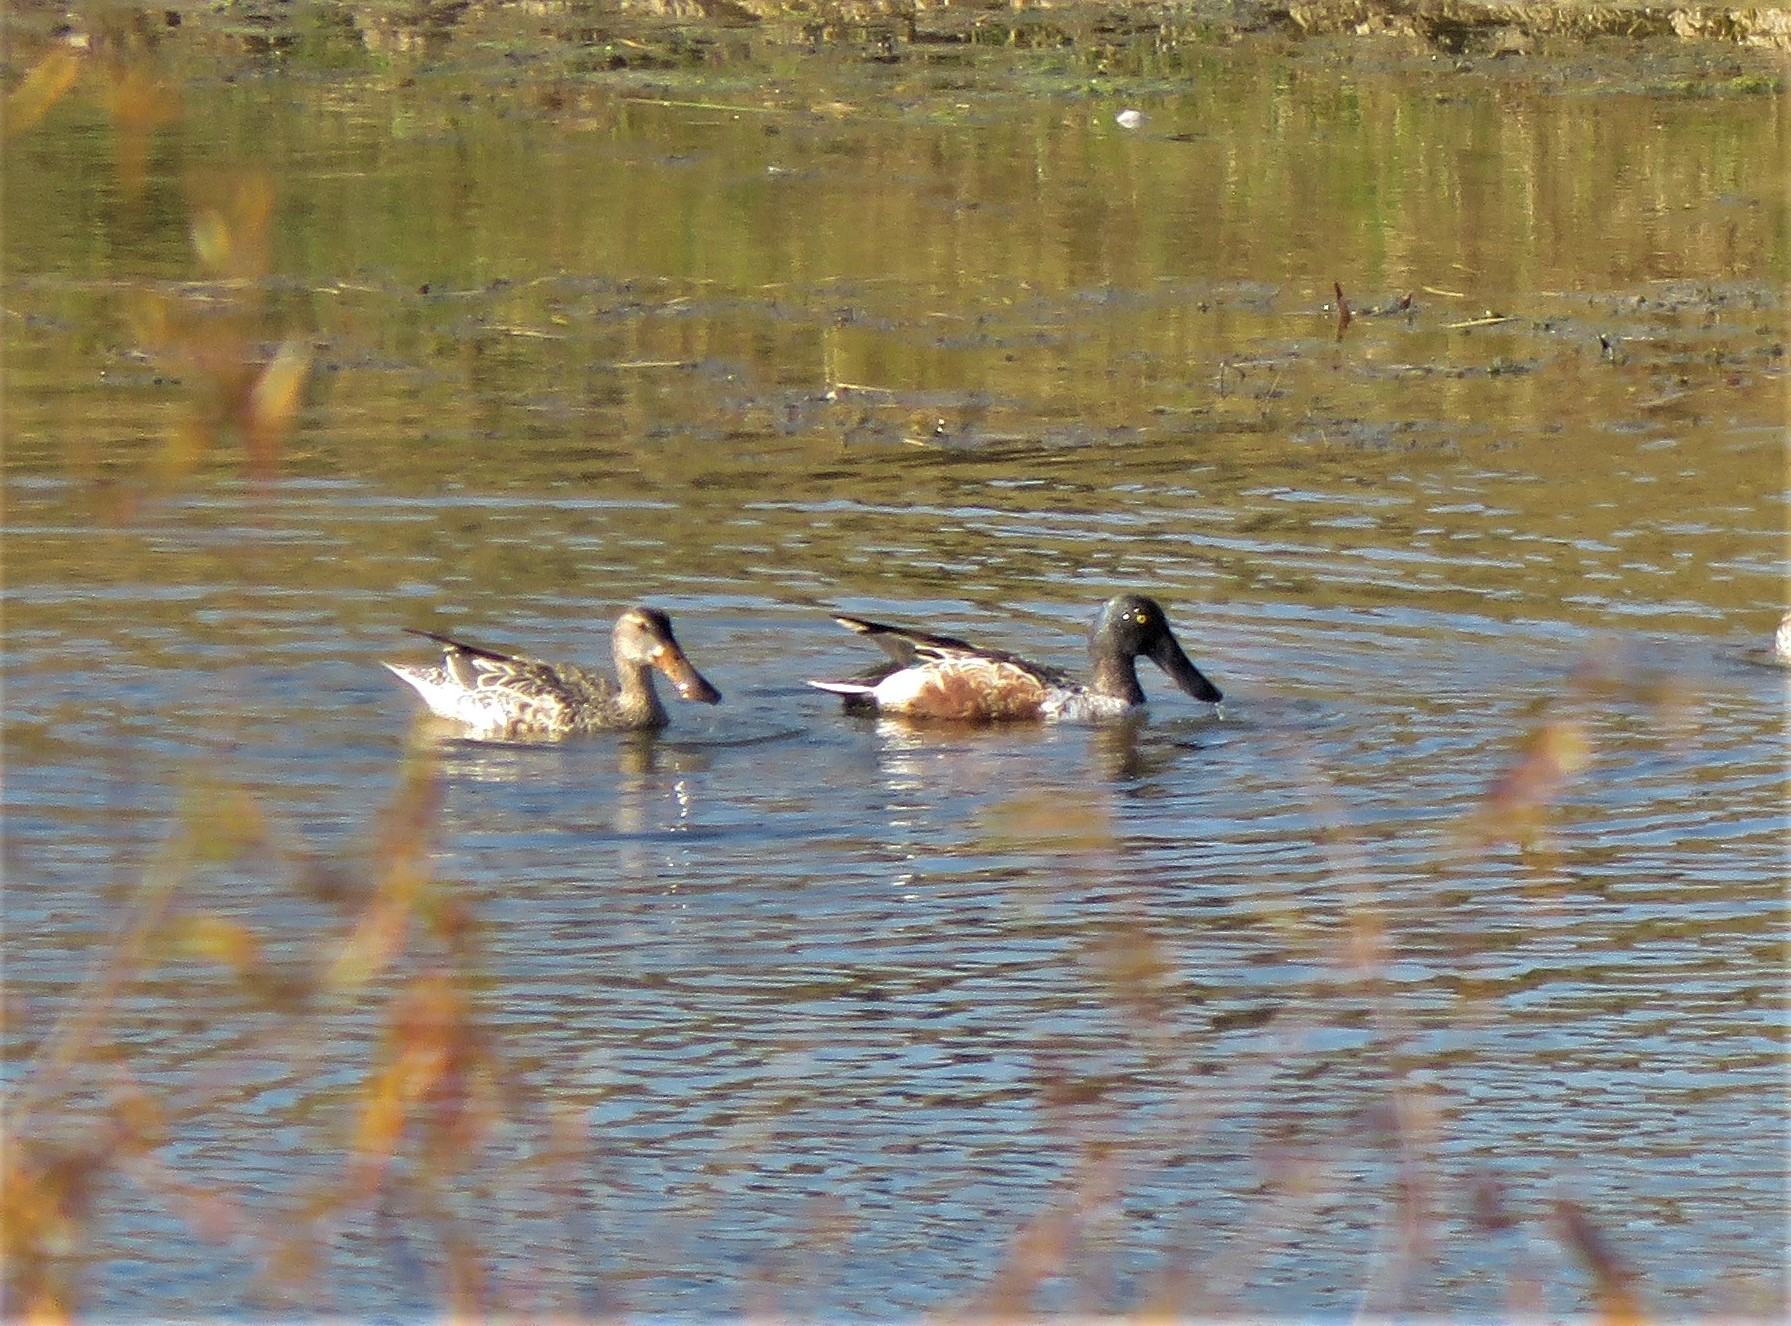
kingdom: Animalia
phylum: Chordata
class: Aves
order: Anseriformes
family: Anatidae
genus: Spatula
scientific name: Spatula clypeata
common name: Northern shoveler
